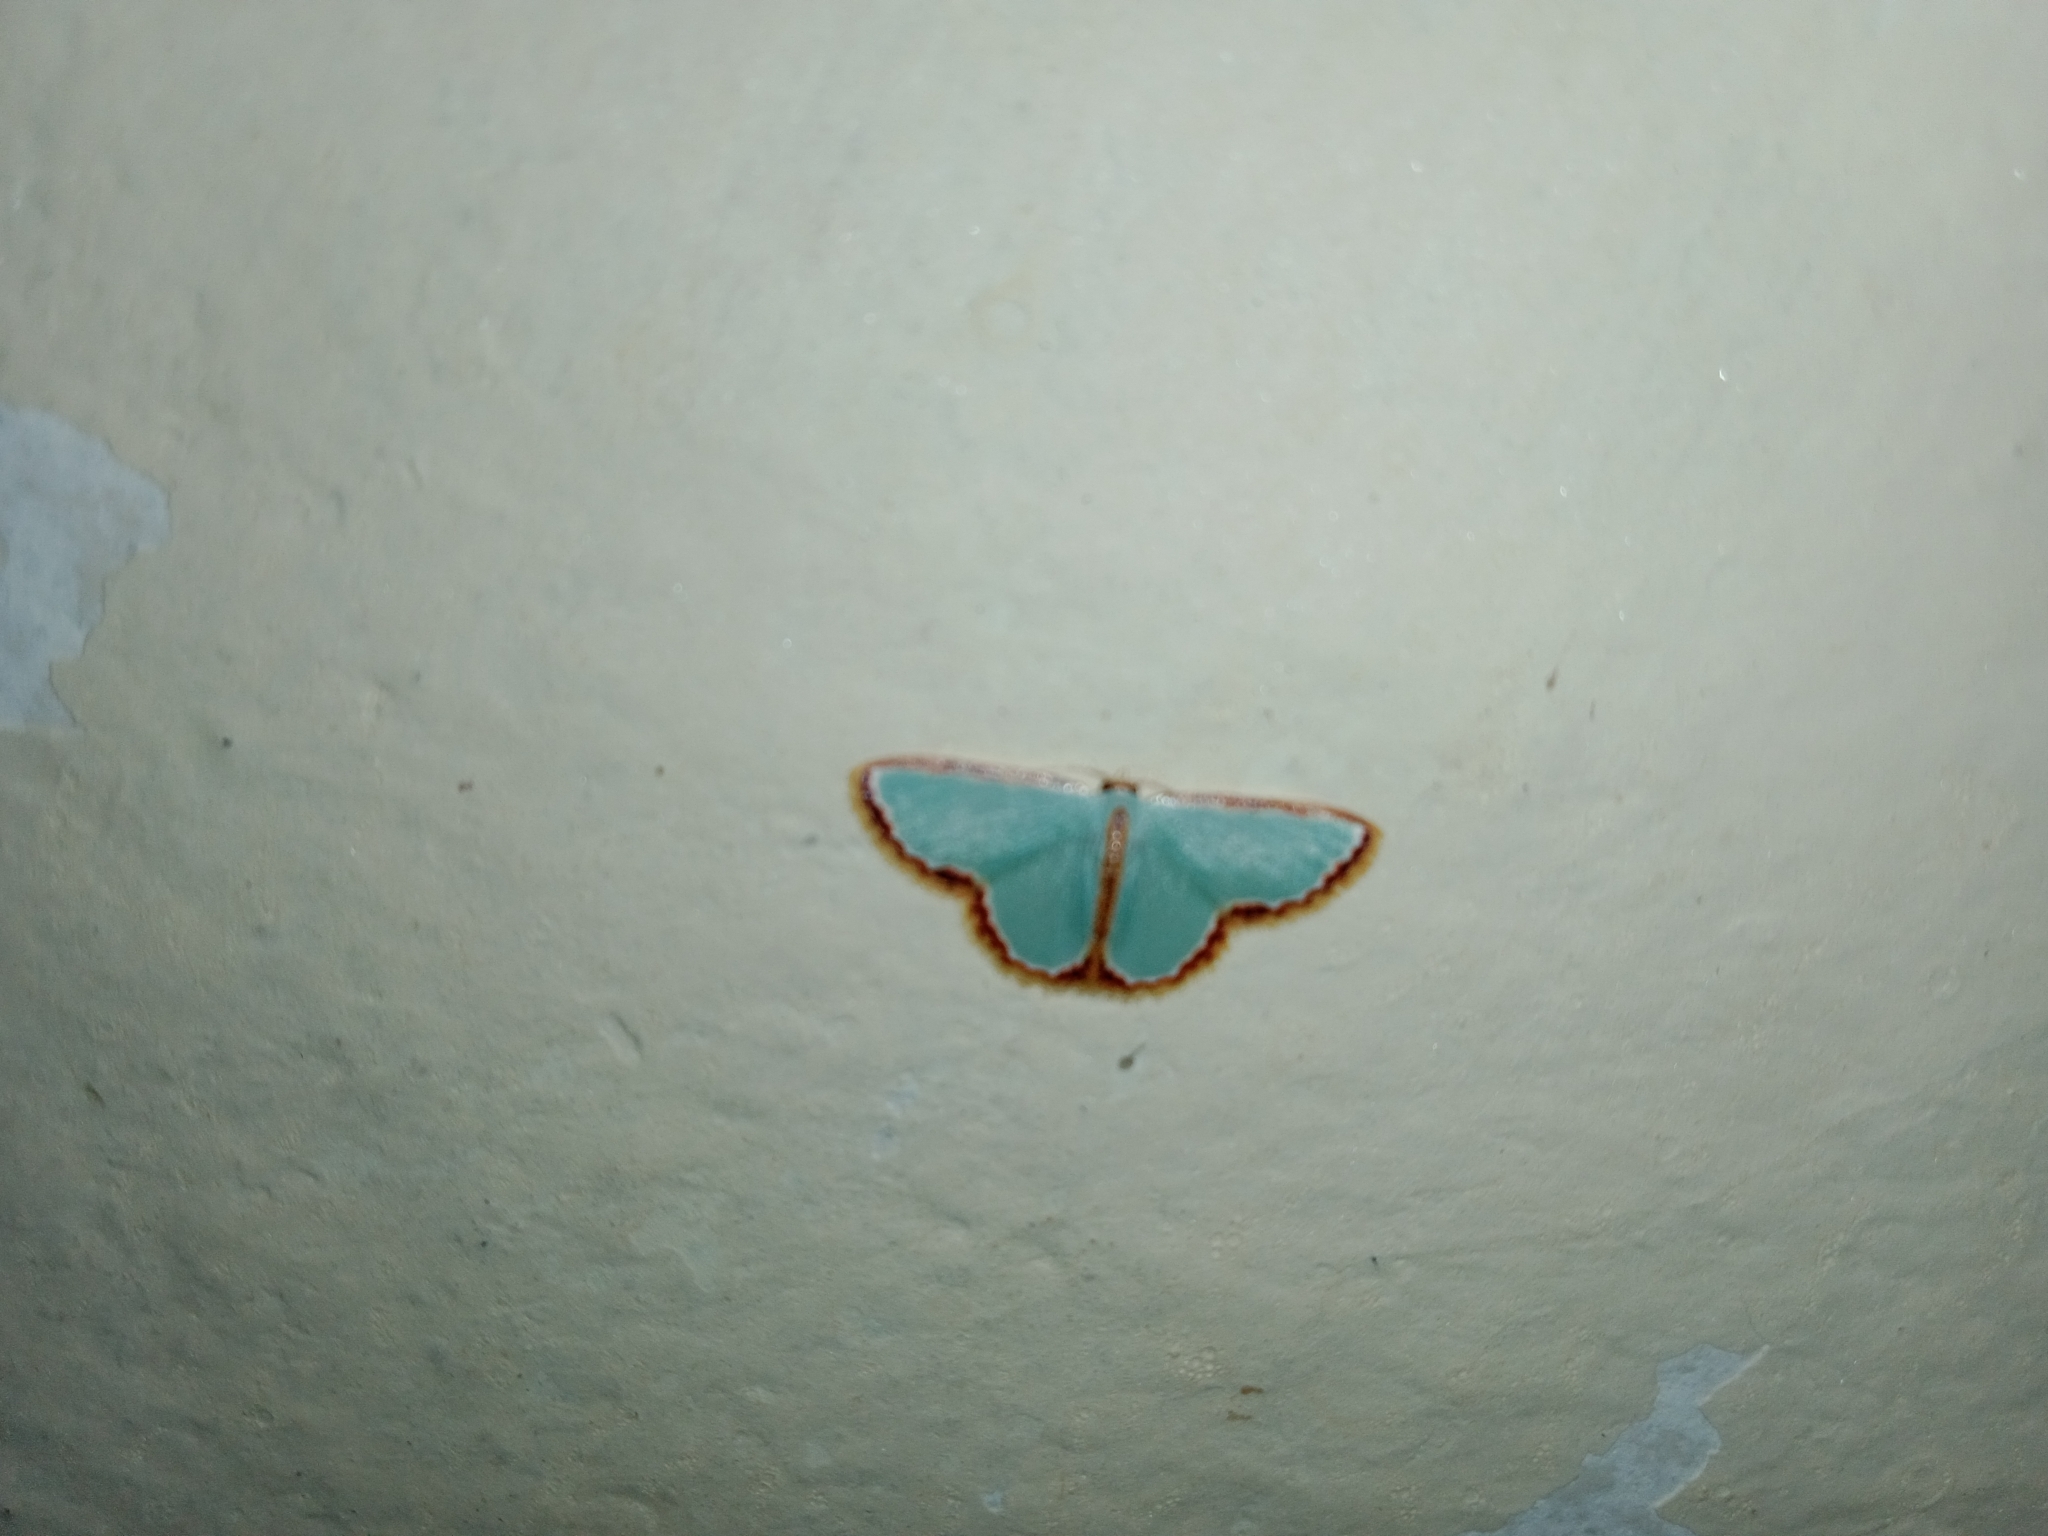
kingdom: Animalia
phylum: Arthropoda
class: Insecta
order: Lepidoptera
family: Geometridae
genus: Comostola
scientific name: Comostola pyrrhogona
